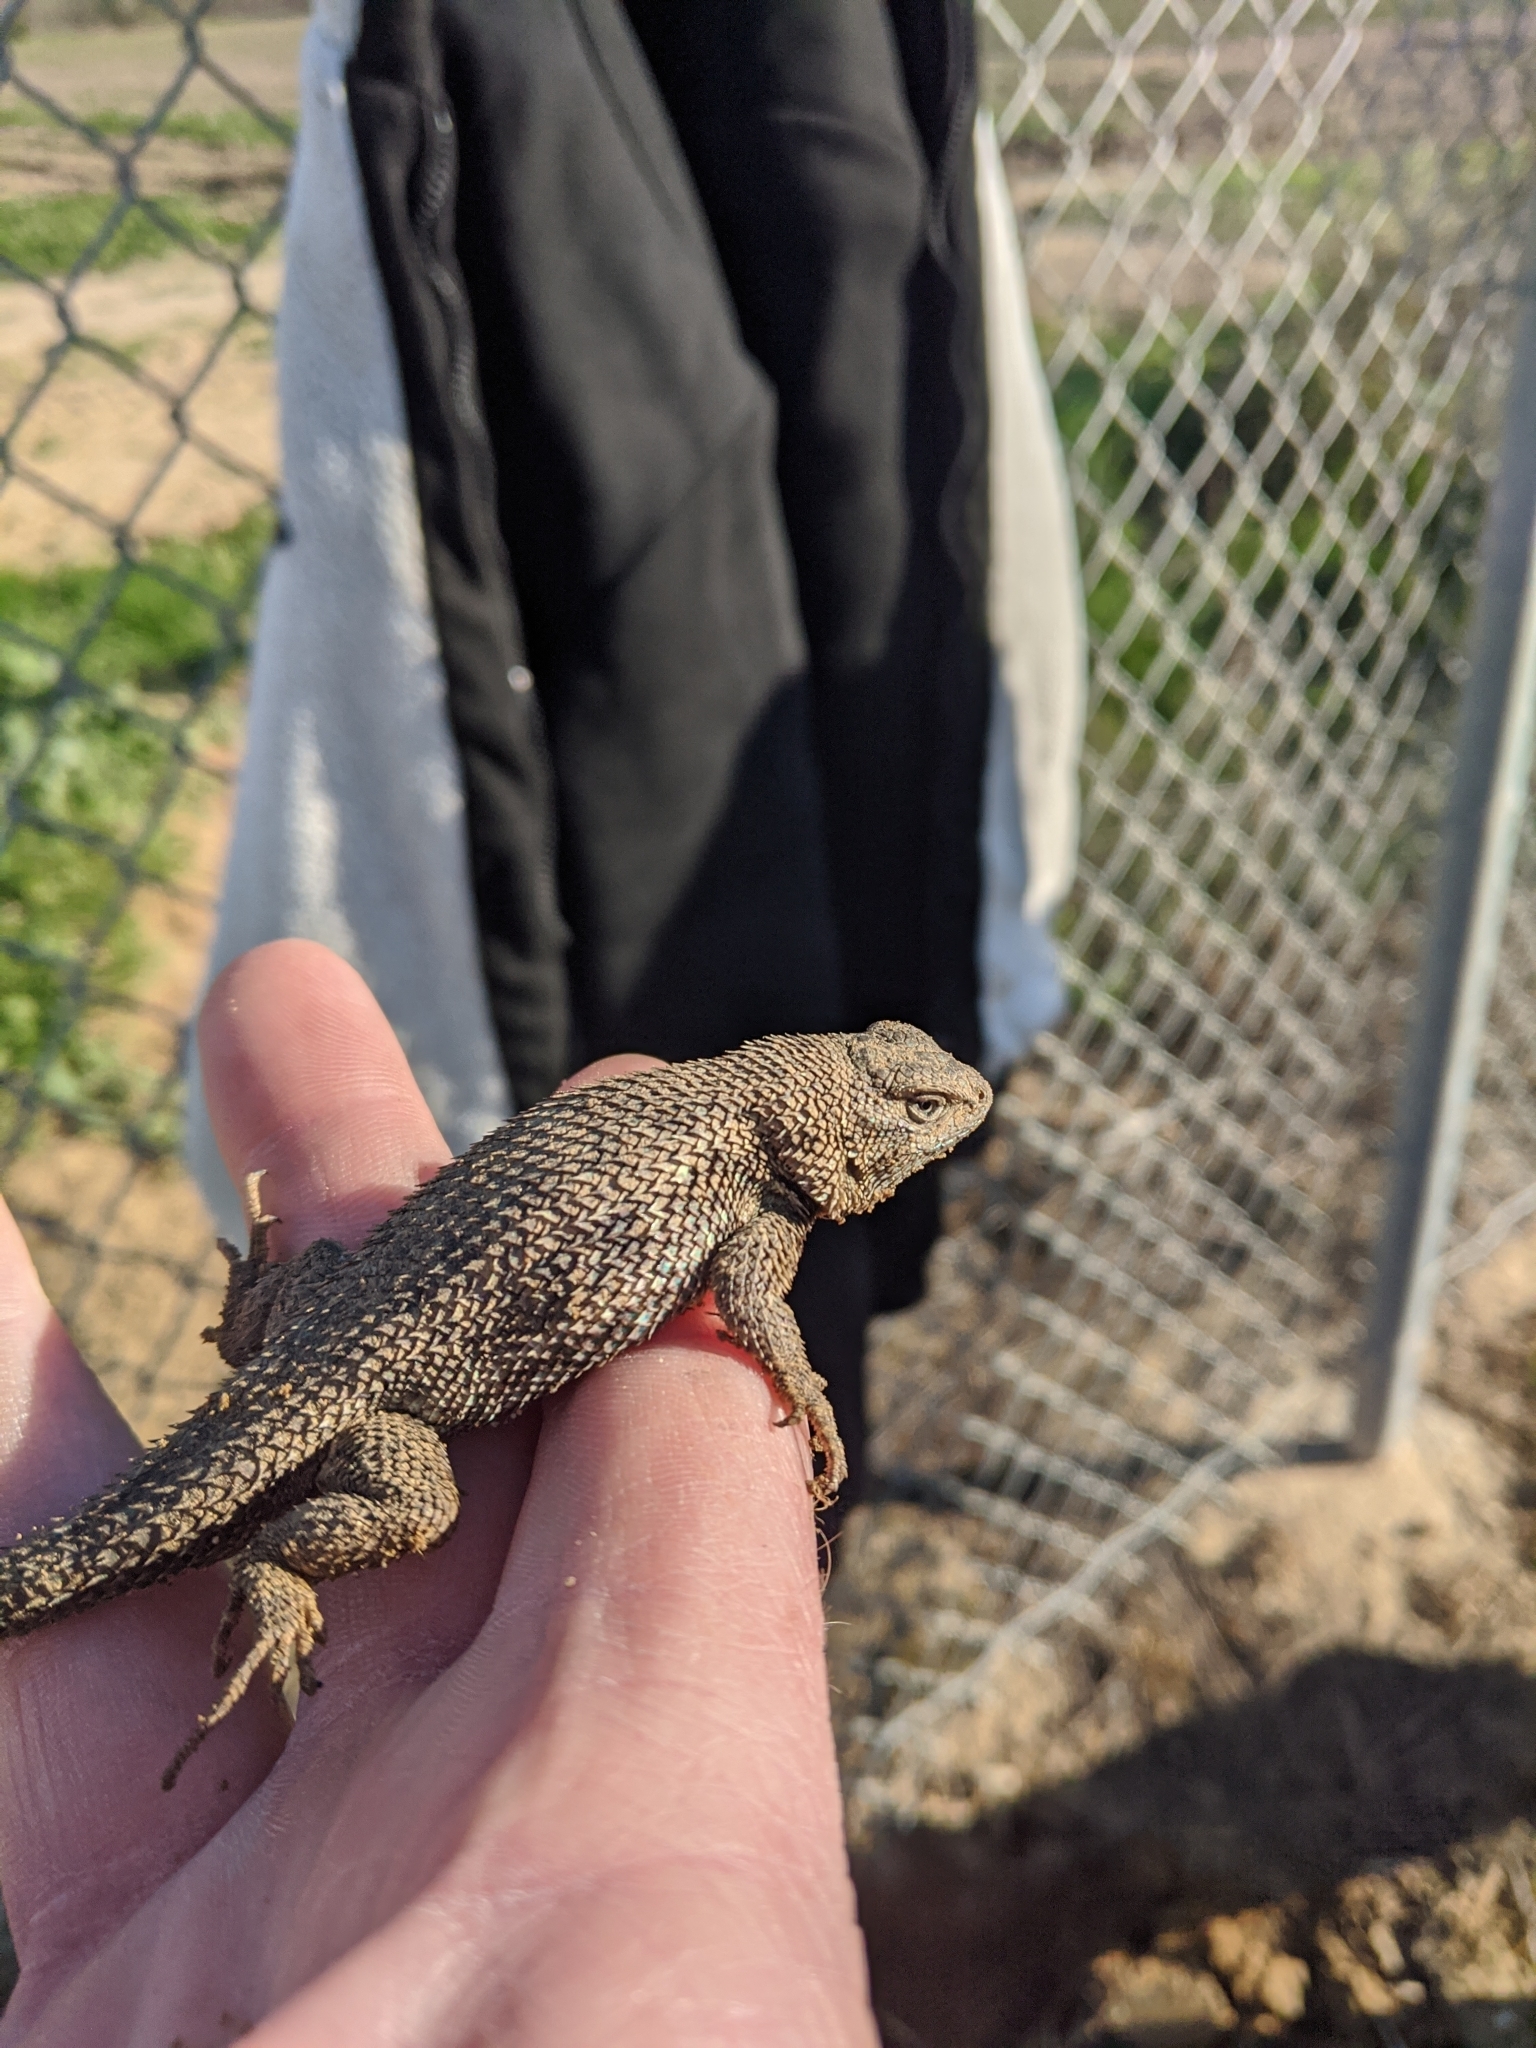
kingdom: Animalia
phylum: Chordata
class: Squamata
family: Phrynosomatidae
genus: Sceloporus
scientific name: Sceloporus occidentalis
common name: Western fence lizard
